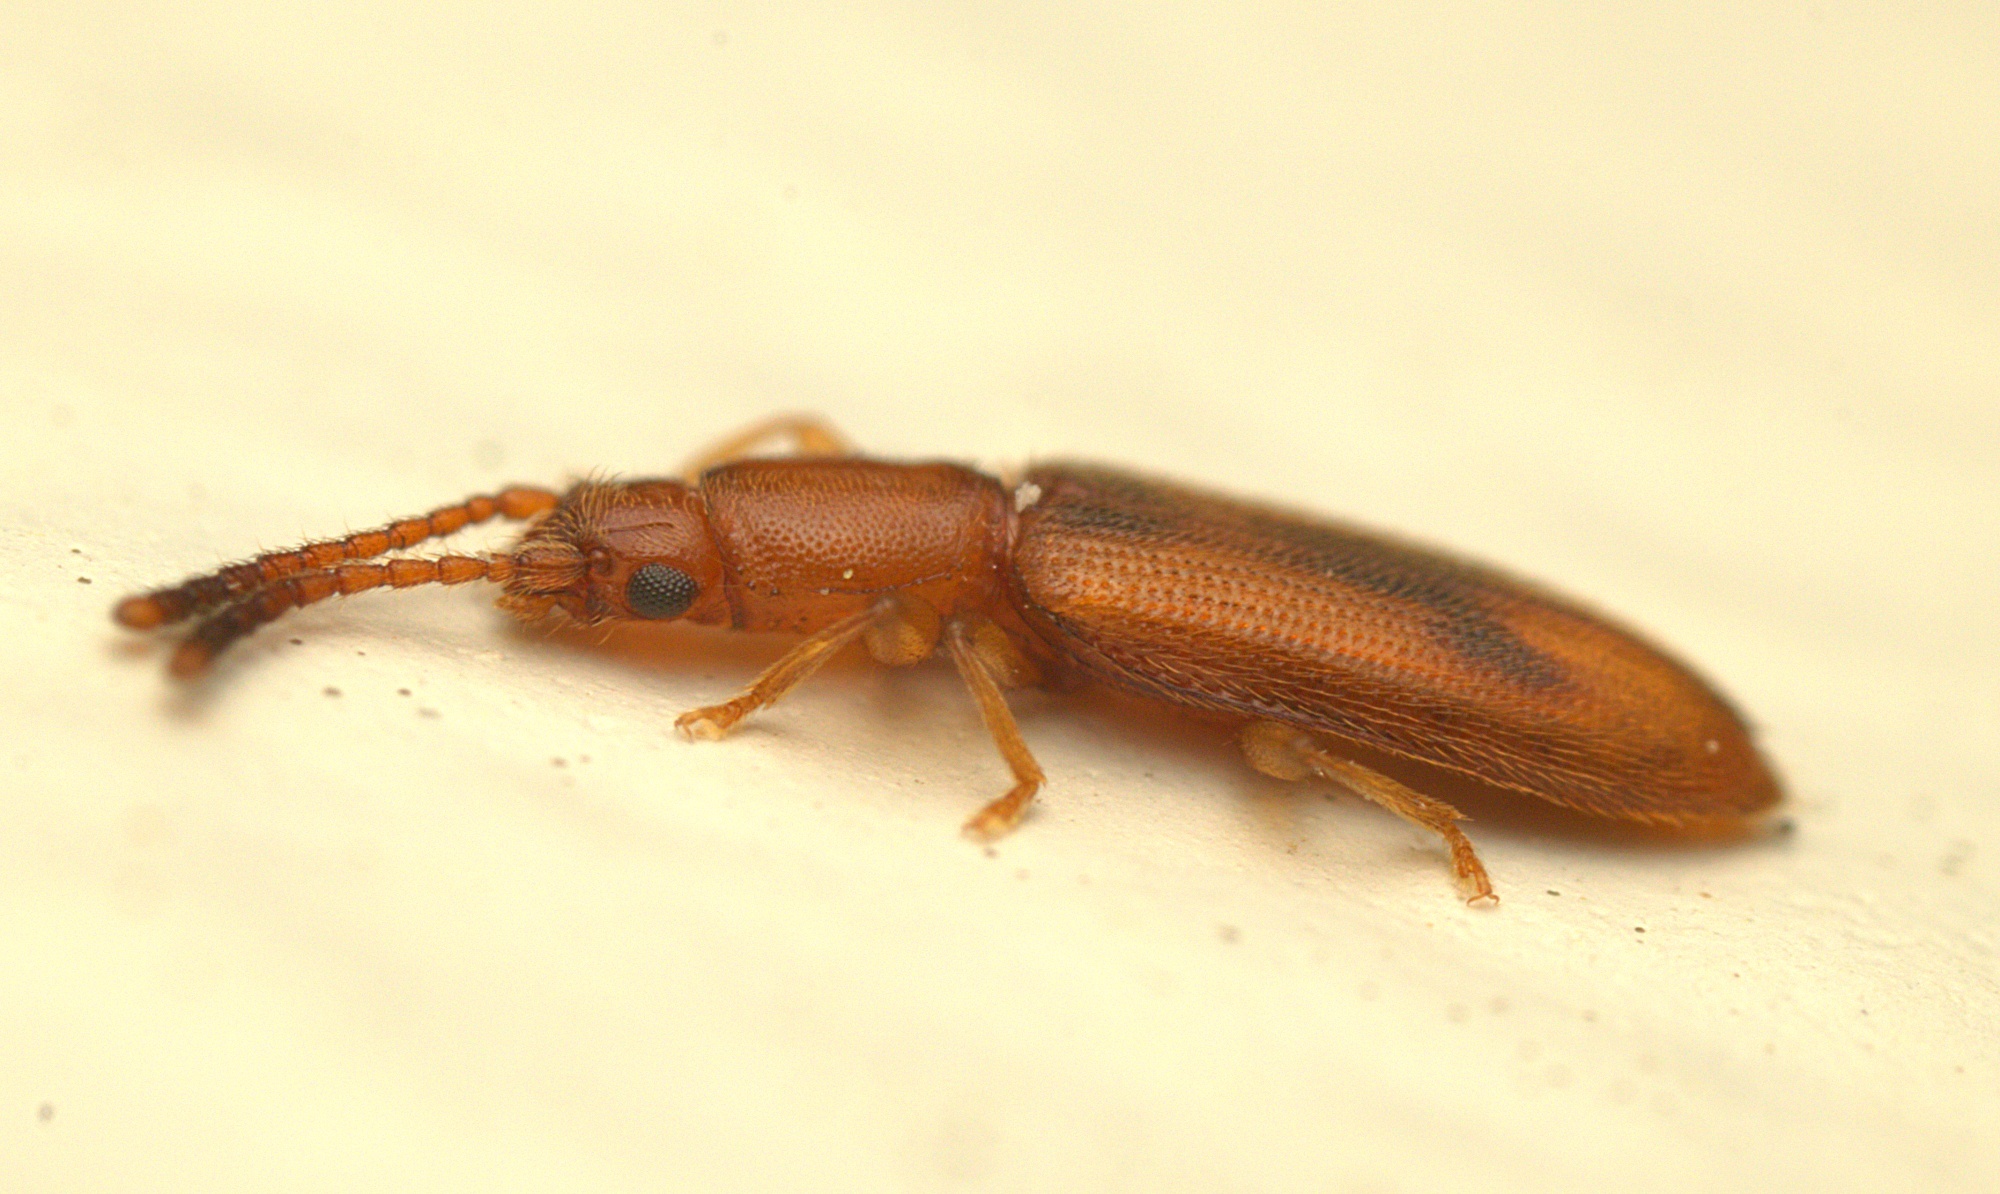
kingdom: Animalia
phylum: Arthropoda
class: Insecta
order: Coleoptera
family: Silvanidae
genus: Cryptamorpha
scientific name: Cryptamorpha desjardinsi
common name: Cryptamorpha
